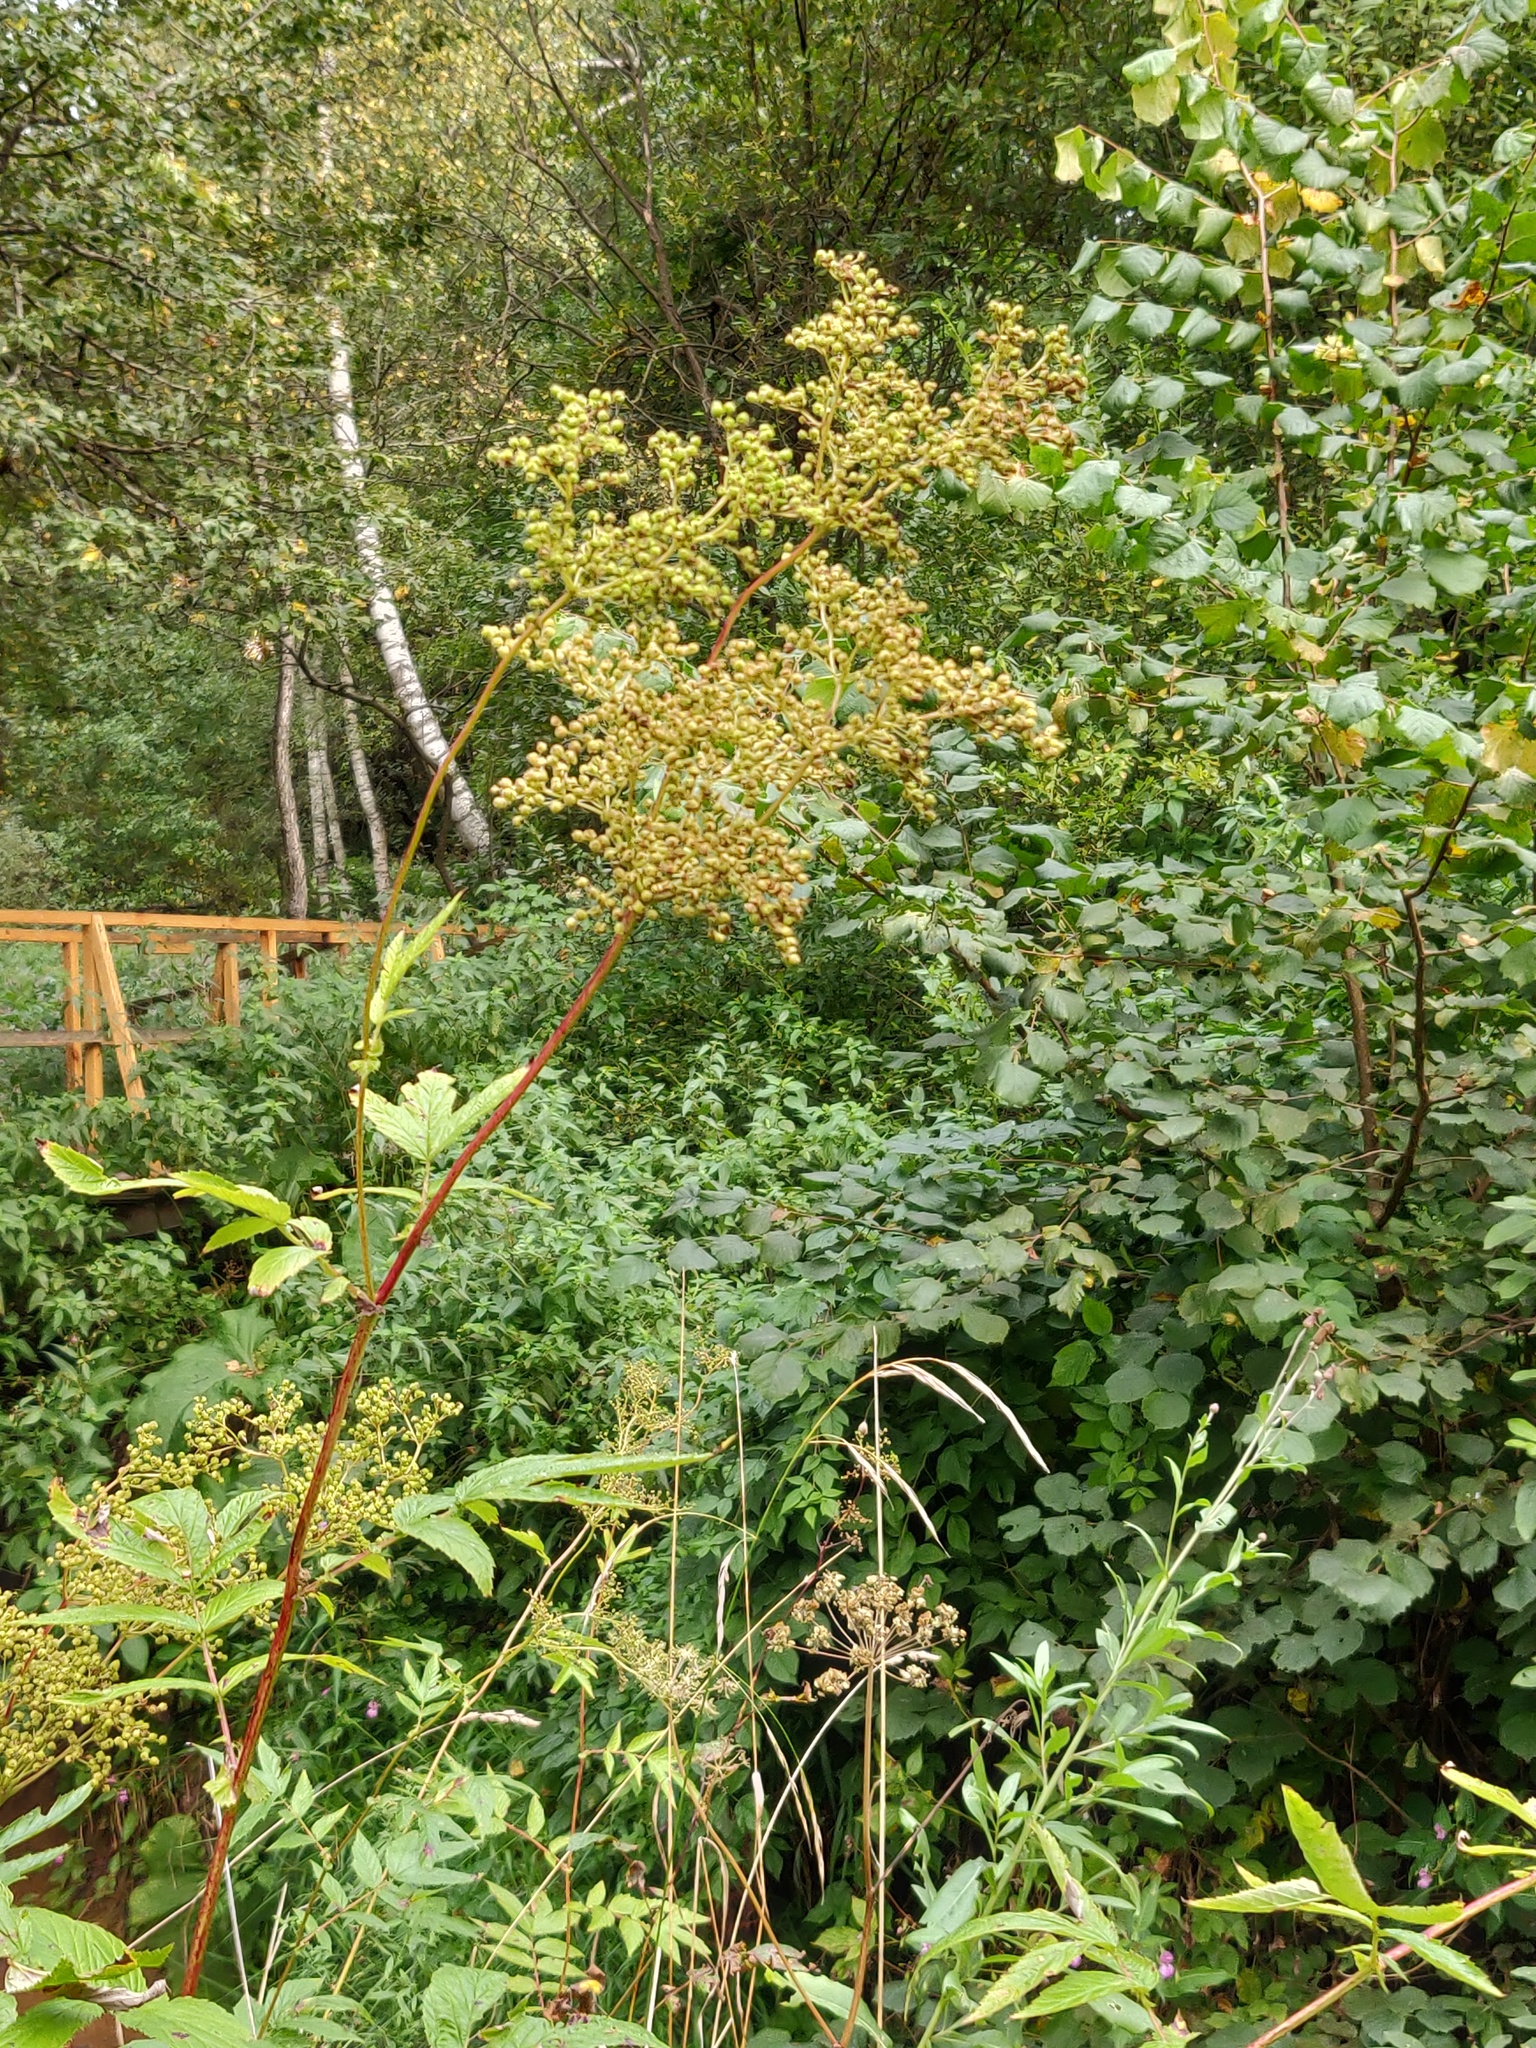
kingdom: Plantae
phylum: Tracheophyta
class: Magnoliopsida
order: Rosales
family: Rosaceae
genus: Filipendula
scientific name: Filipendula ulmaria
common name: Meadowsweet
